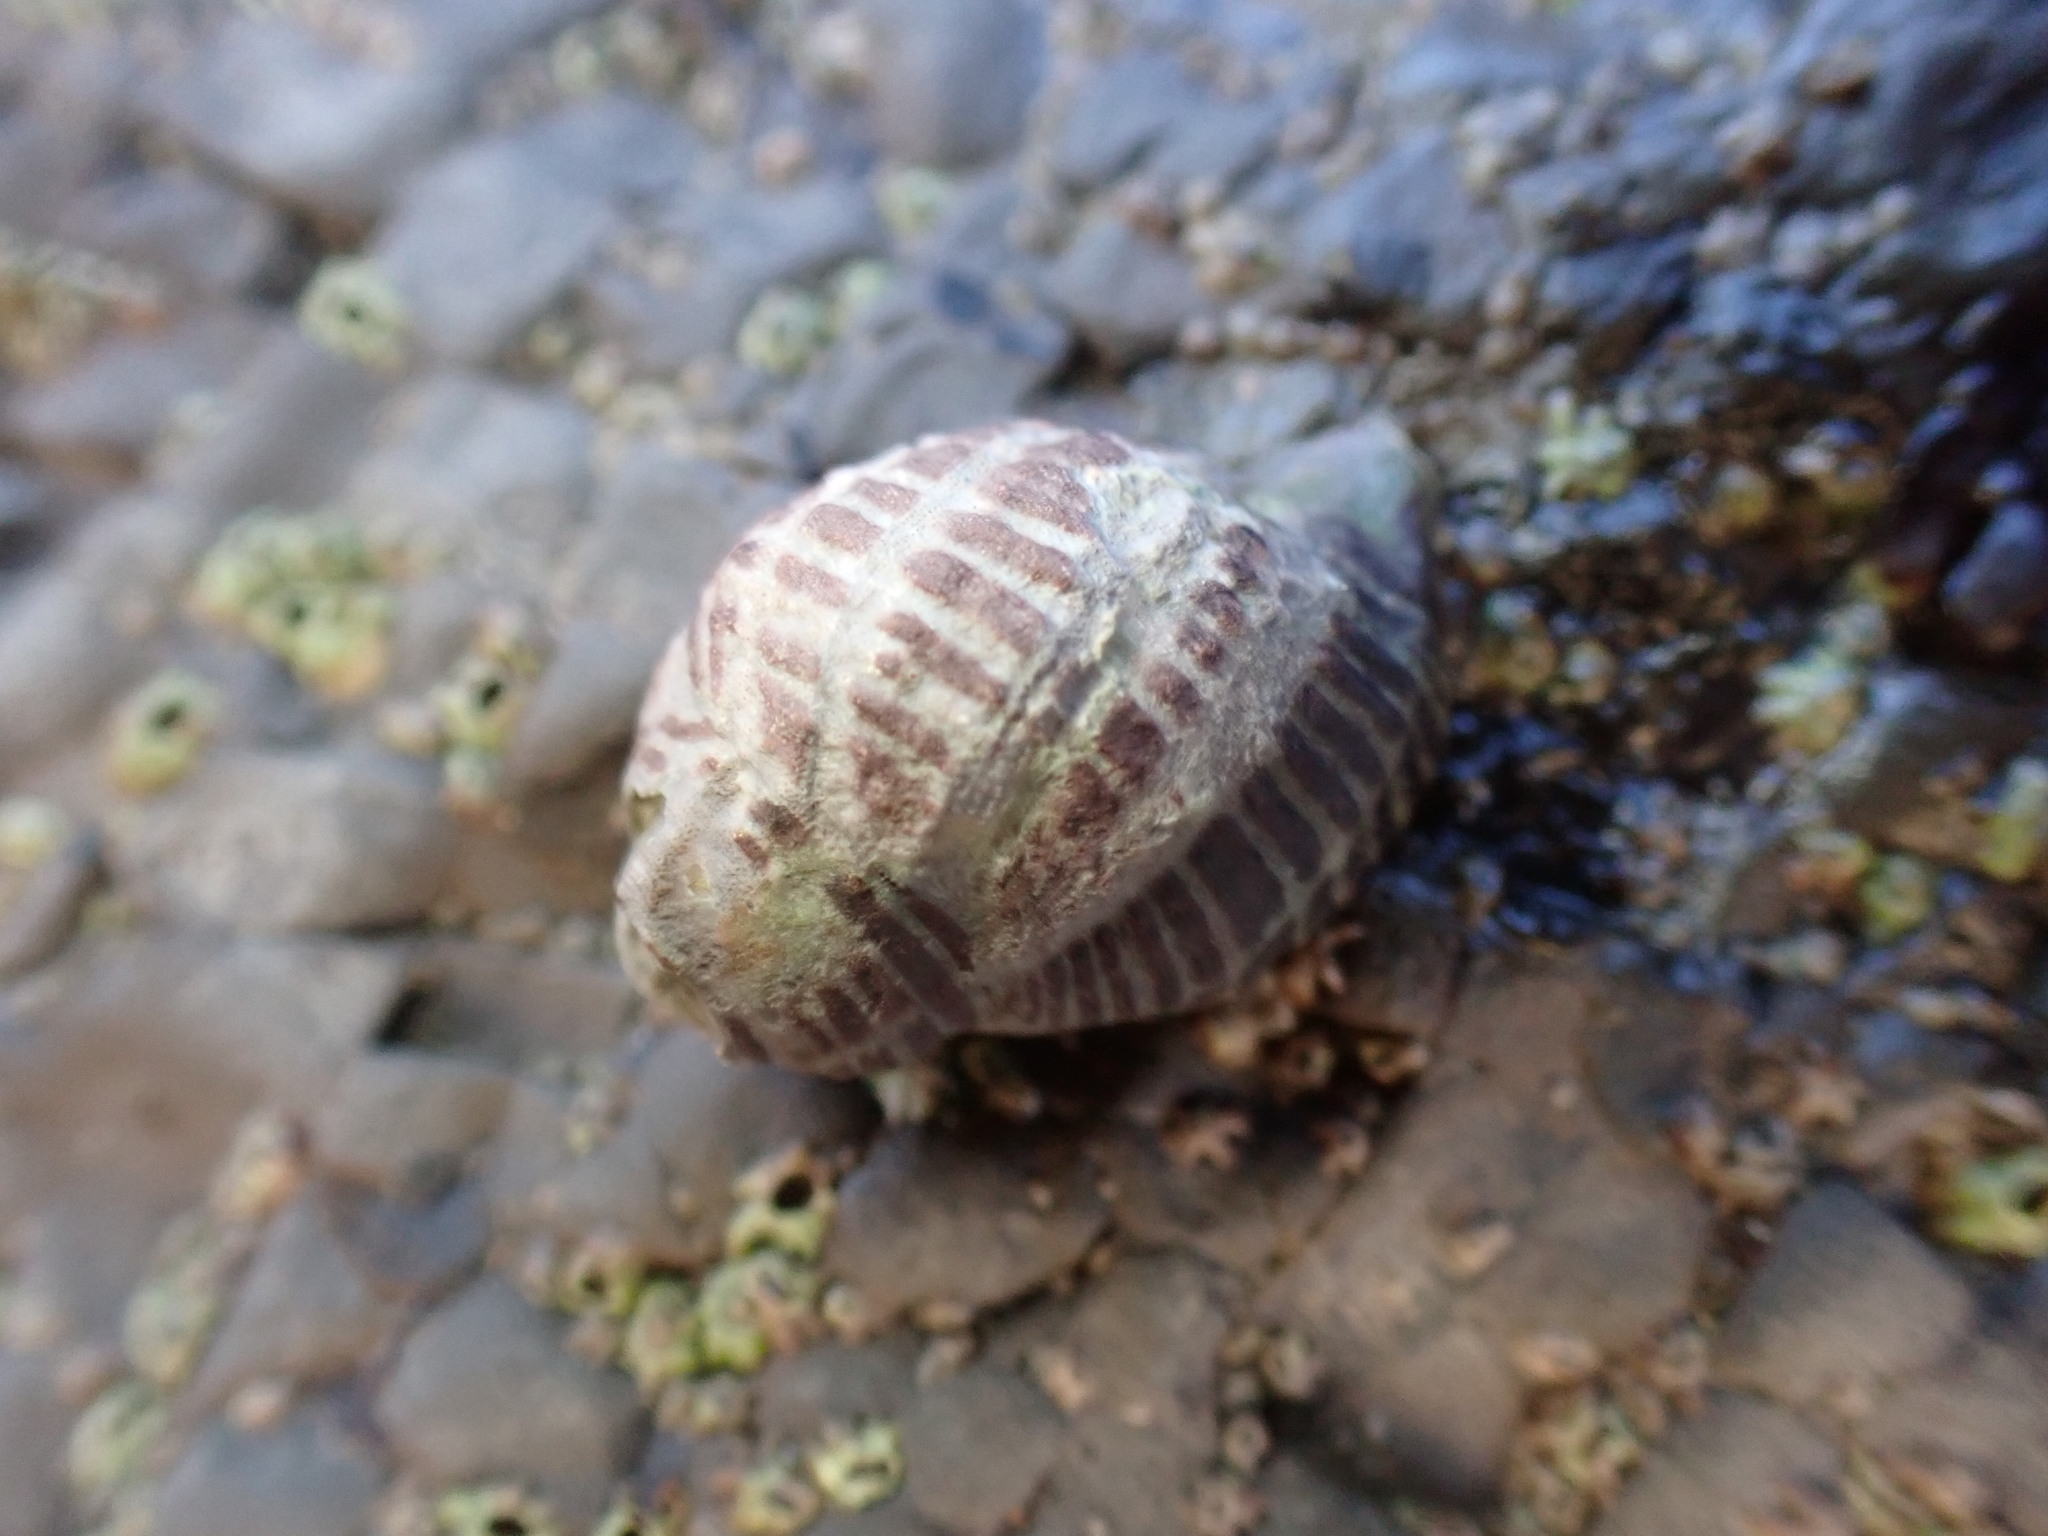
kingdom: Animalia
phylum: Mollusca
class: Gastropoda
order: Neogastropoda
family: Muricidae
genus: Acanthinucella
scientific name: Acanthinucella punctulata
